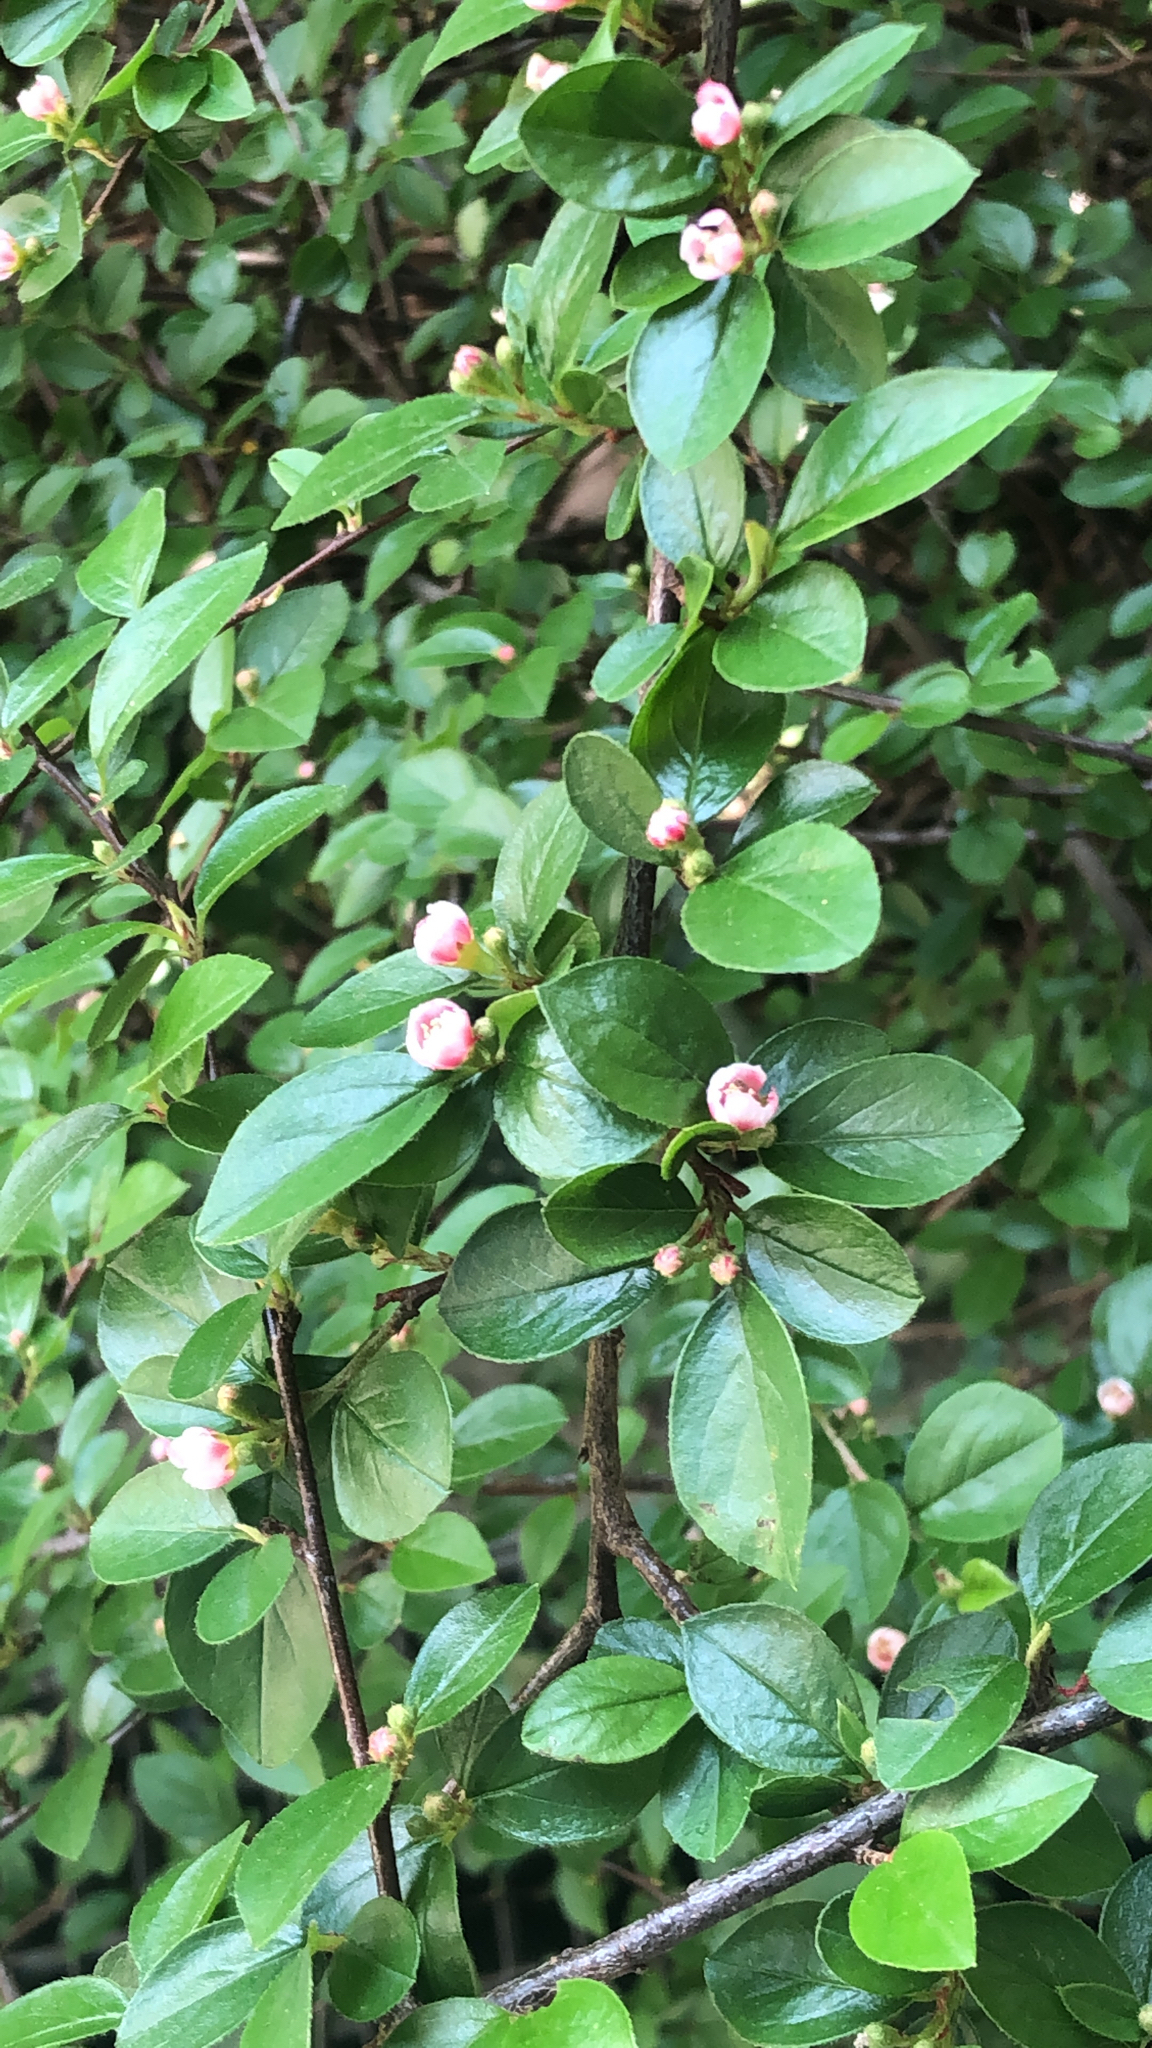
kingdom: Plantae
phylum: Tracheophyta
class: Magnoliopsida
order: Rosales
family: Rosaceae
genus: Cotoneaster
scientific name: Cotoneaster divaricatus
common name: Spreading cotoneaster
